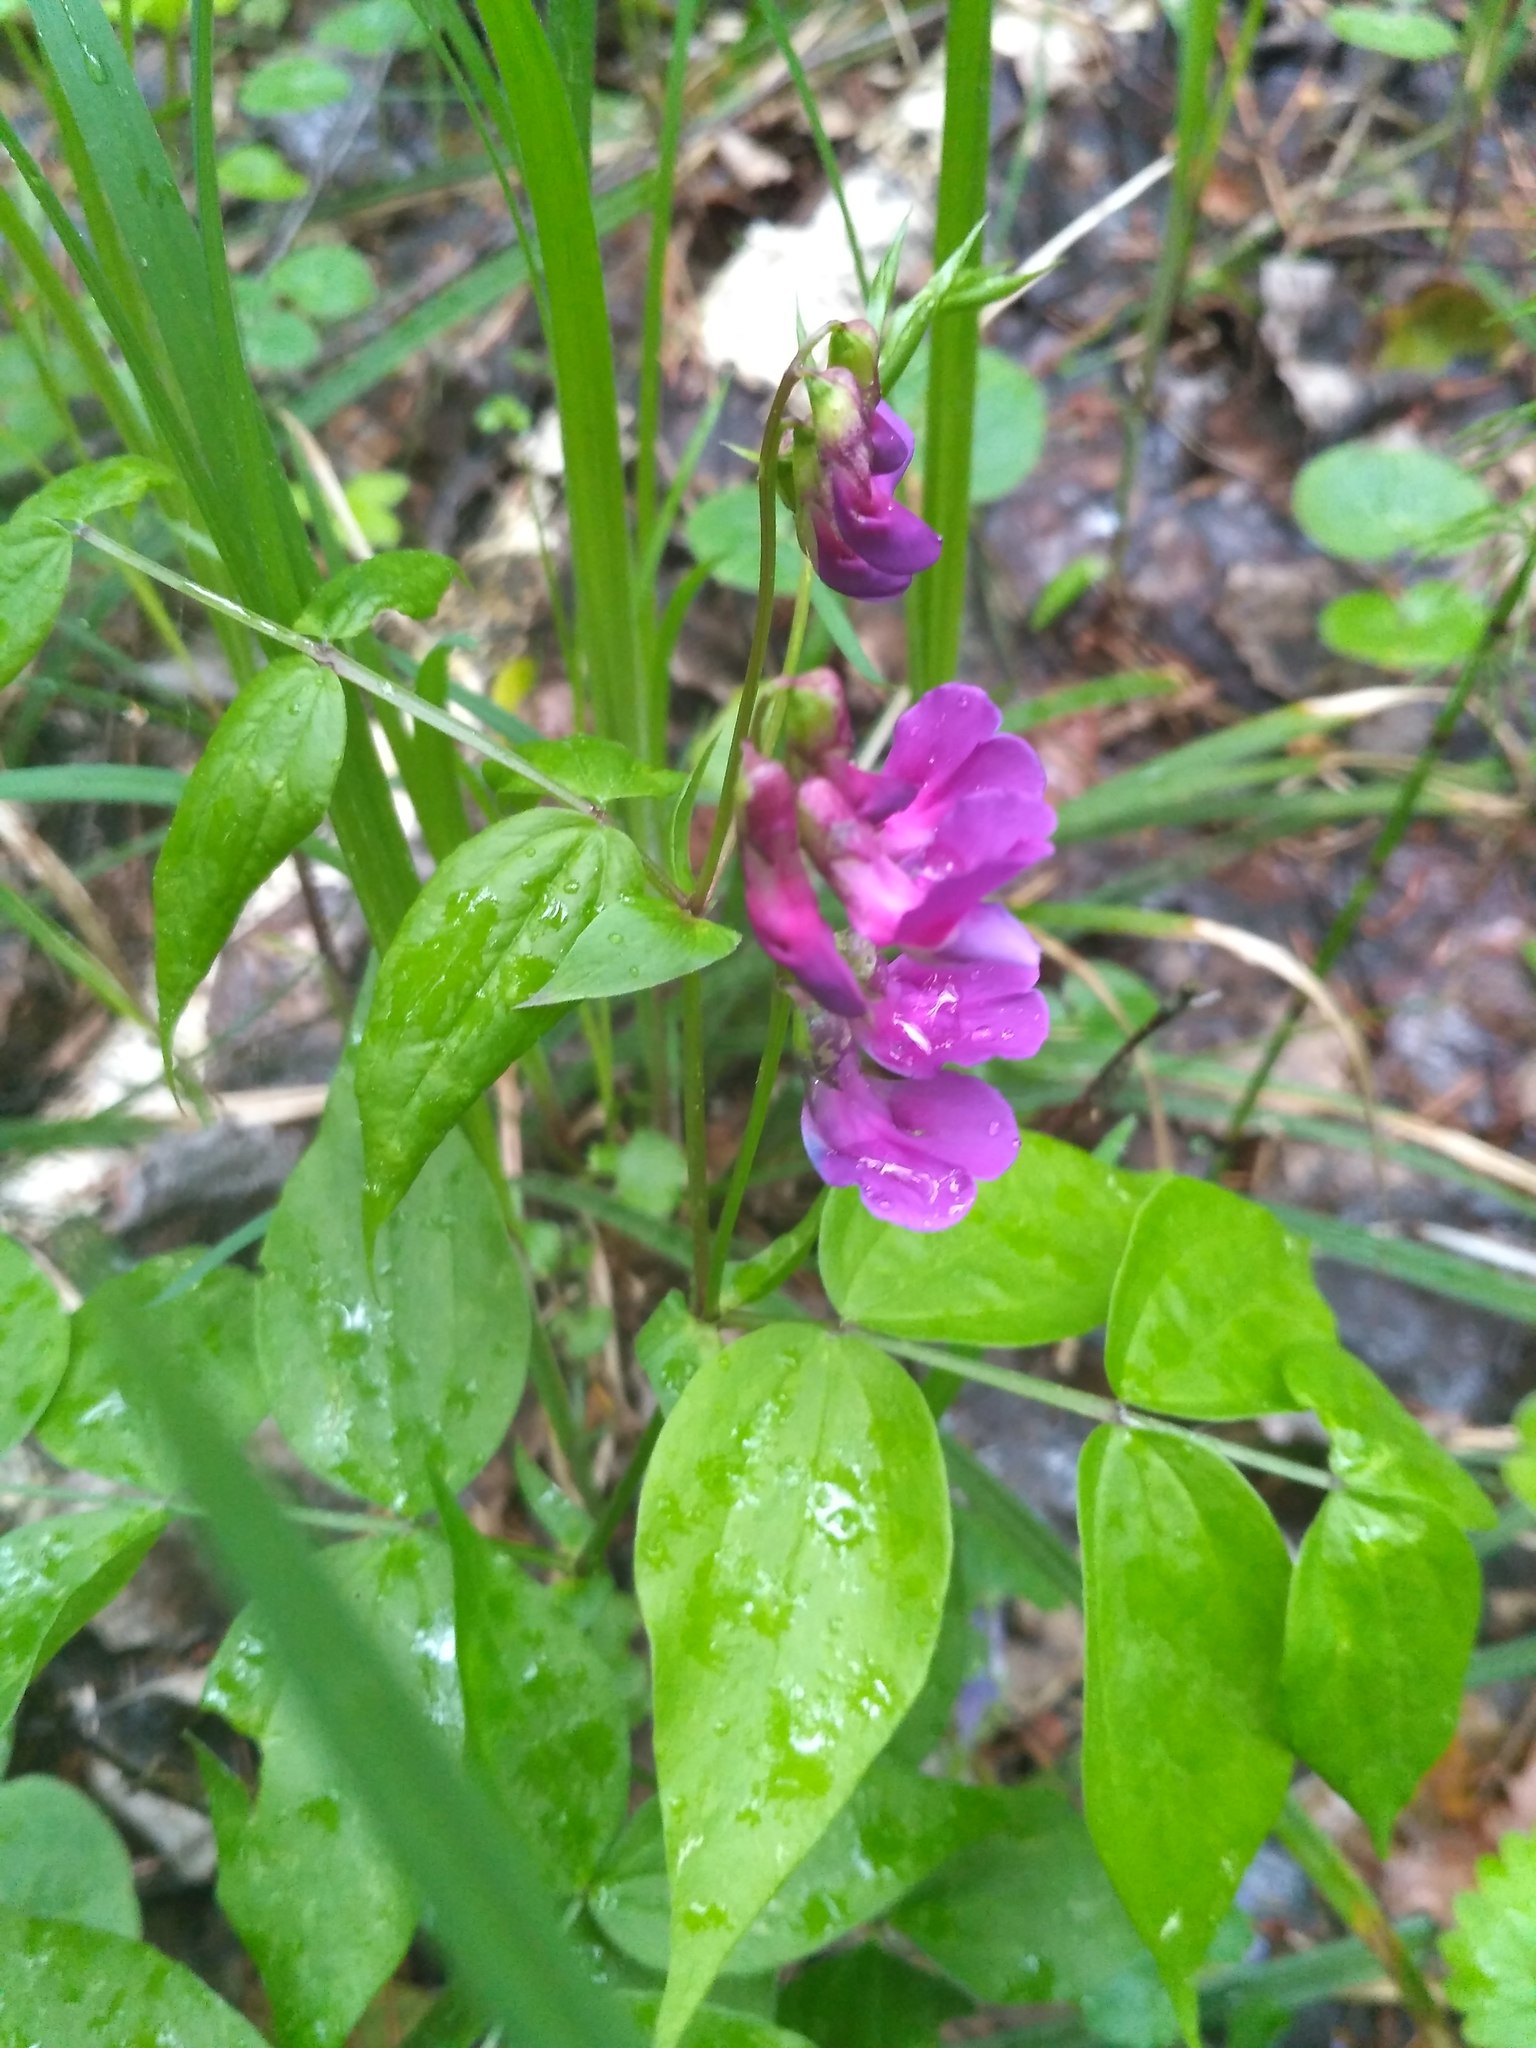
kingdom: Plantae
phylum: Tracheophyta
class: Magnoliopsida
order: Fabales
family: Fabaceae
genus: Lathyrus
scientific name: Lathyrus vernus
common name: Spring pea
